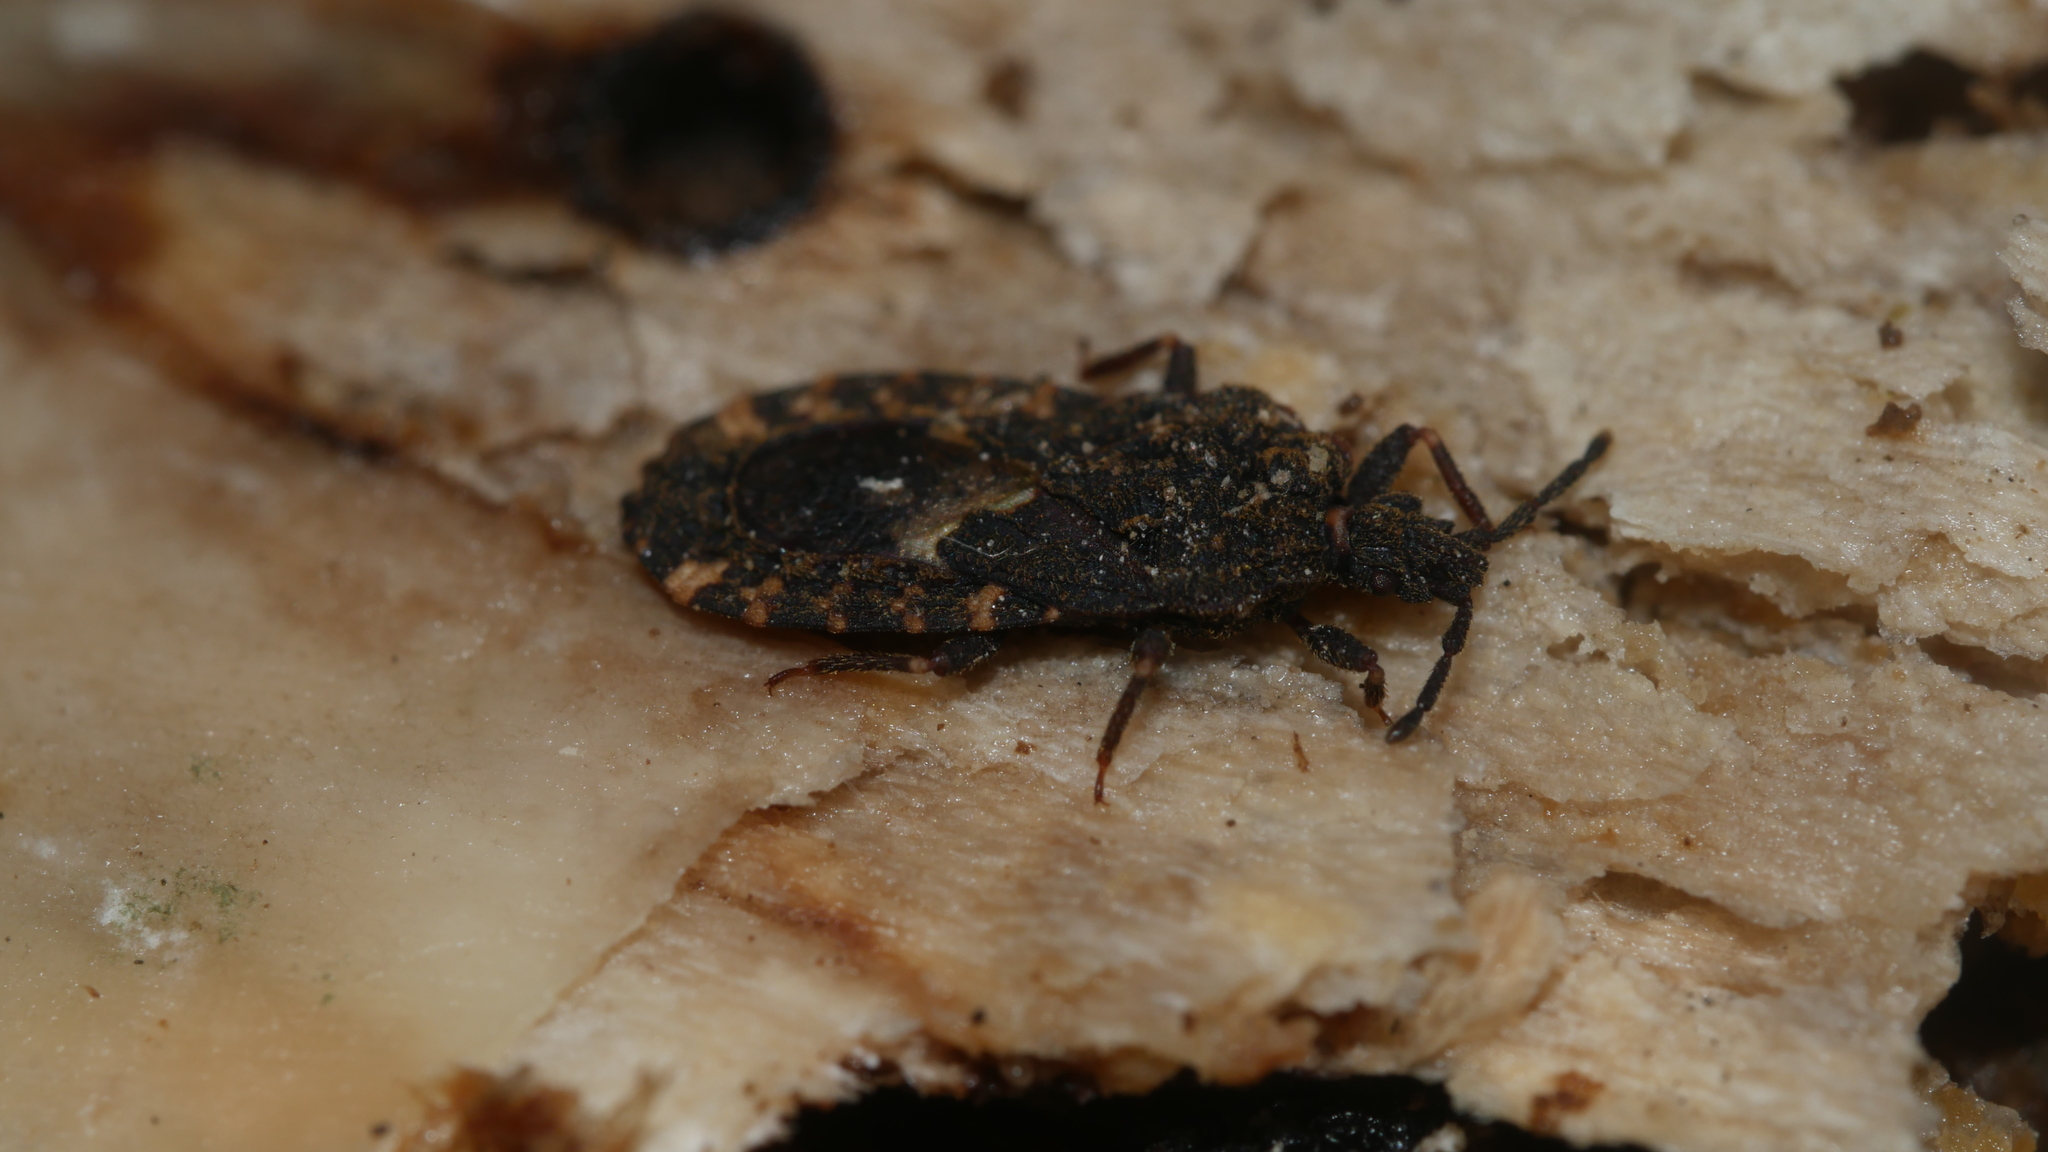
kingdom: Animalia
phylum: Arthropoda
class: Insecta
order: Hemiptera
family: Aradidae
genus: Mezira
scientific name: Mezira
